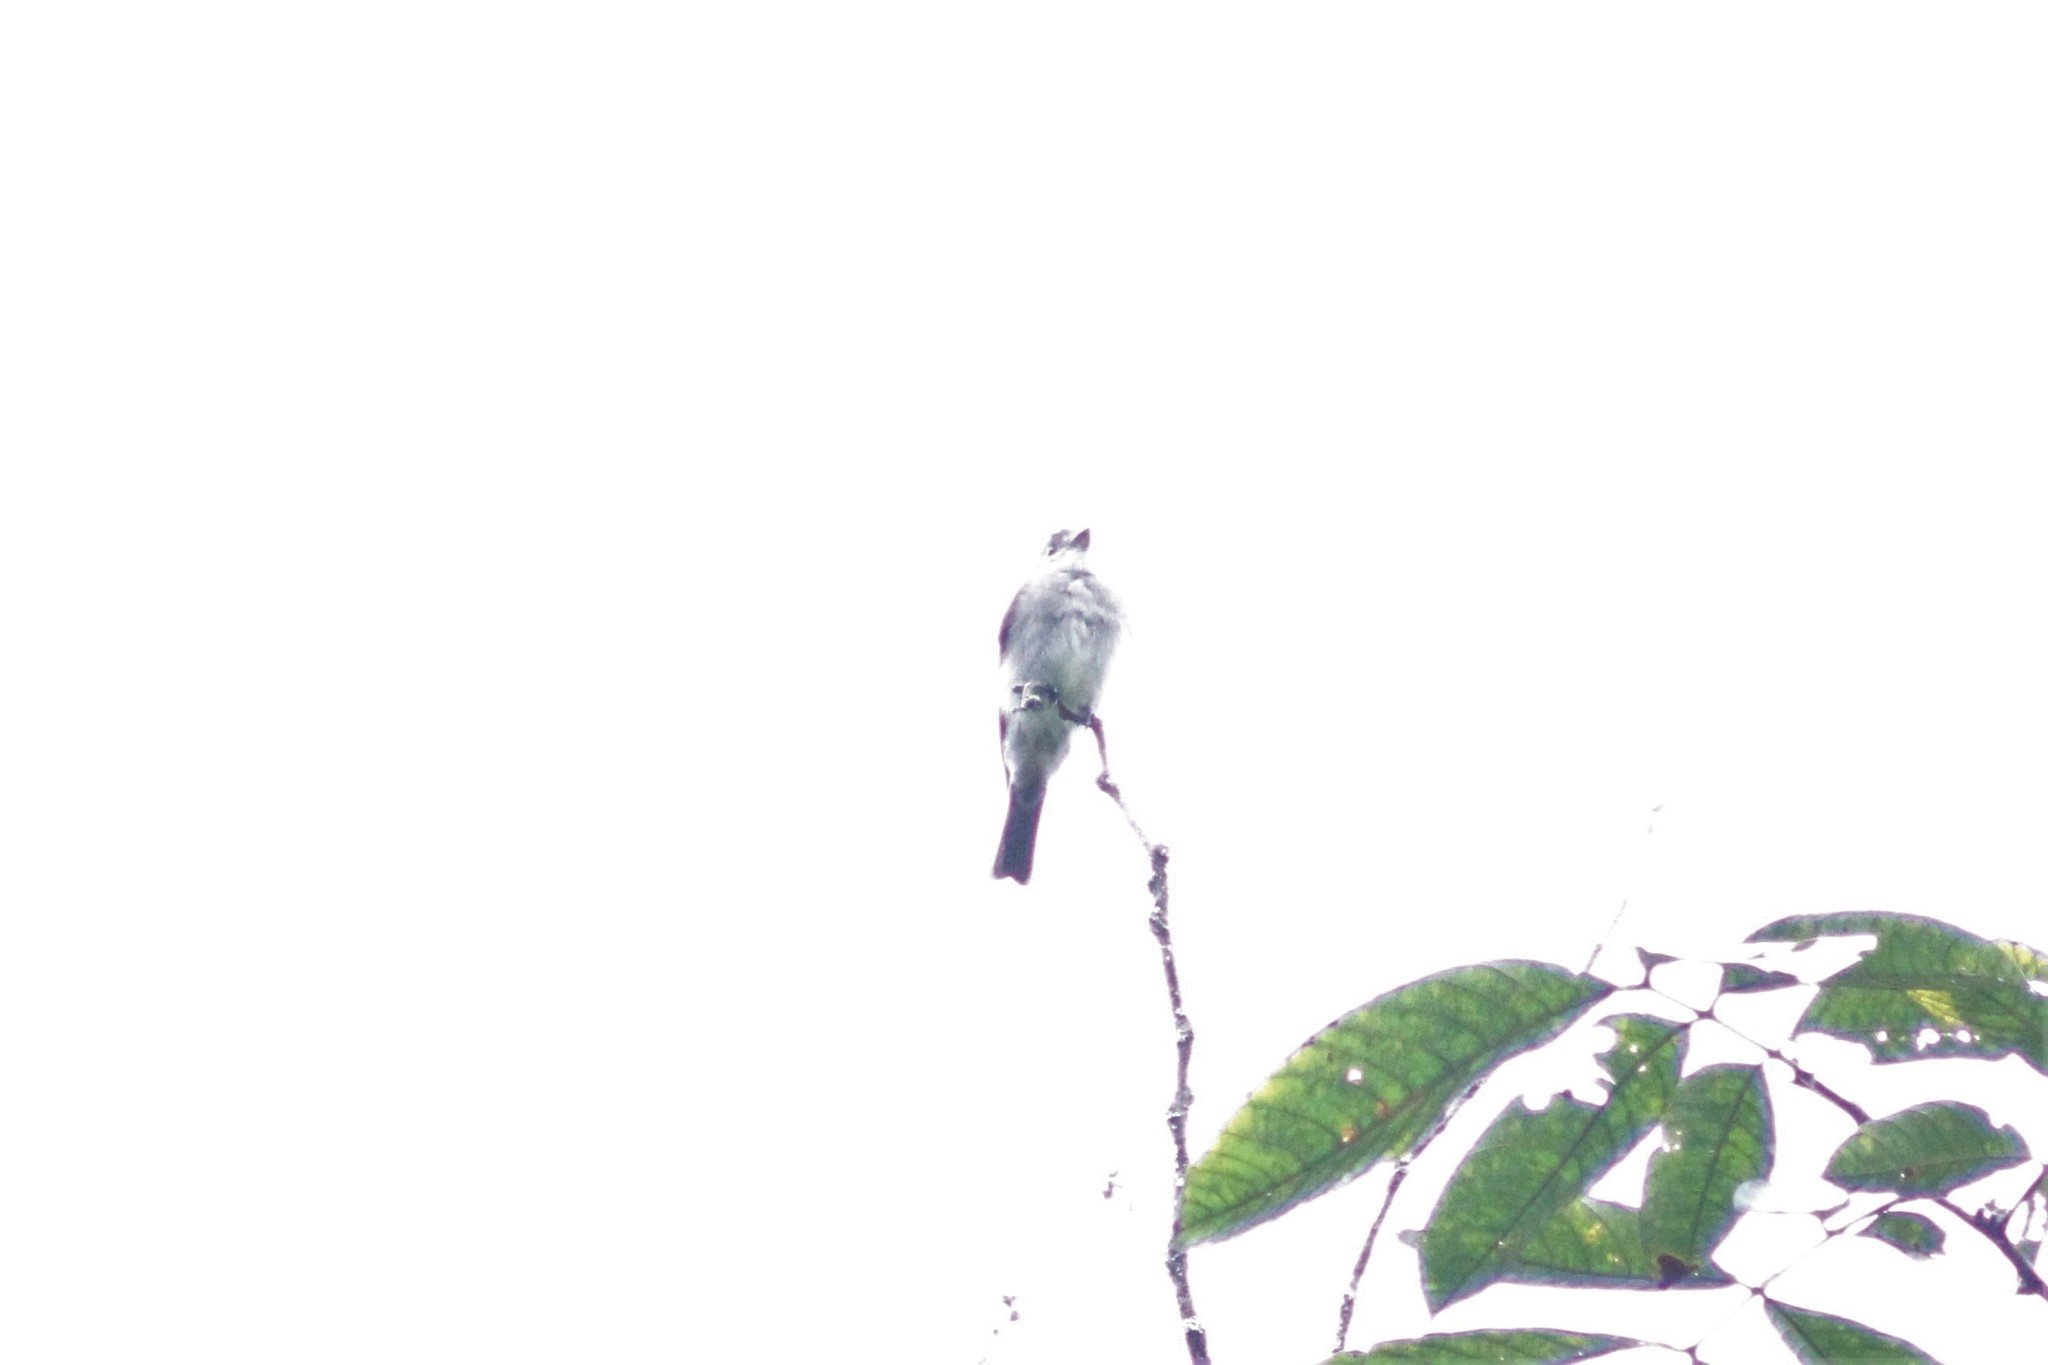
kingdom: Animalia
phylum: Chordata
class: Aves
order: Passeriformes
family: Tyrannidae
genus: Contopus
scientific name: Contopus virens
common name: Eastern wood-pewee
